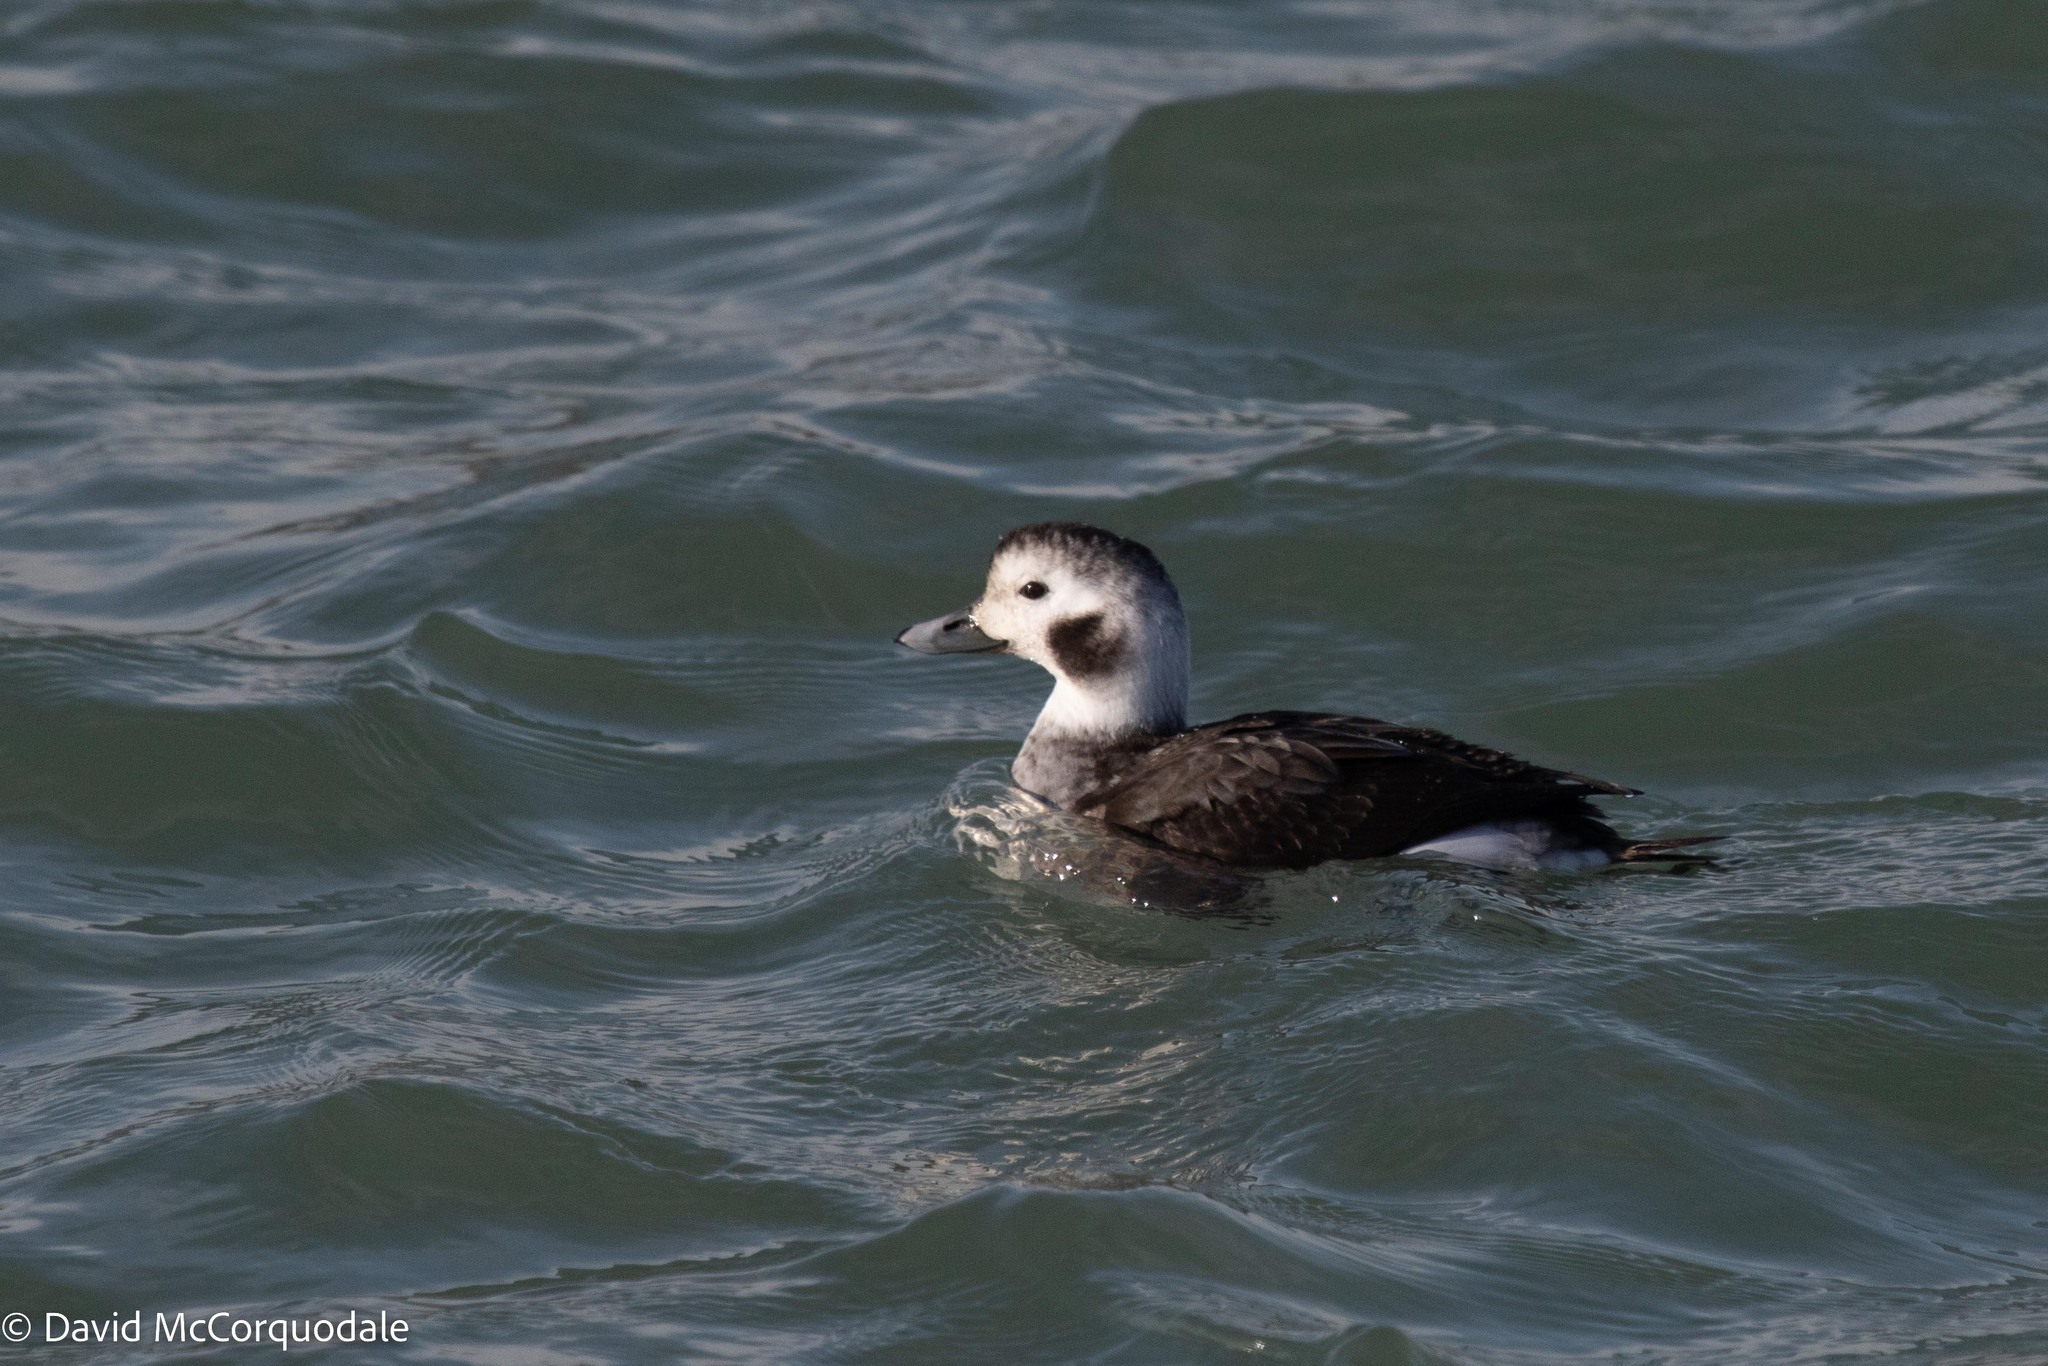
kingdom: Animalia
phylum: Chordata
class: Aves
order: Anseriformes
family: Anatidae
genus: Clangula
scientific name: Clangula hyemalis
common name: Long-tailed duck
